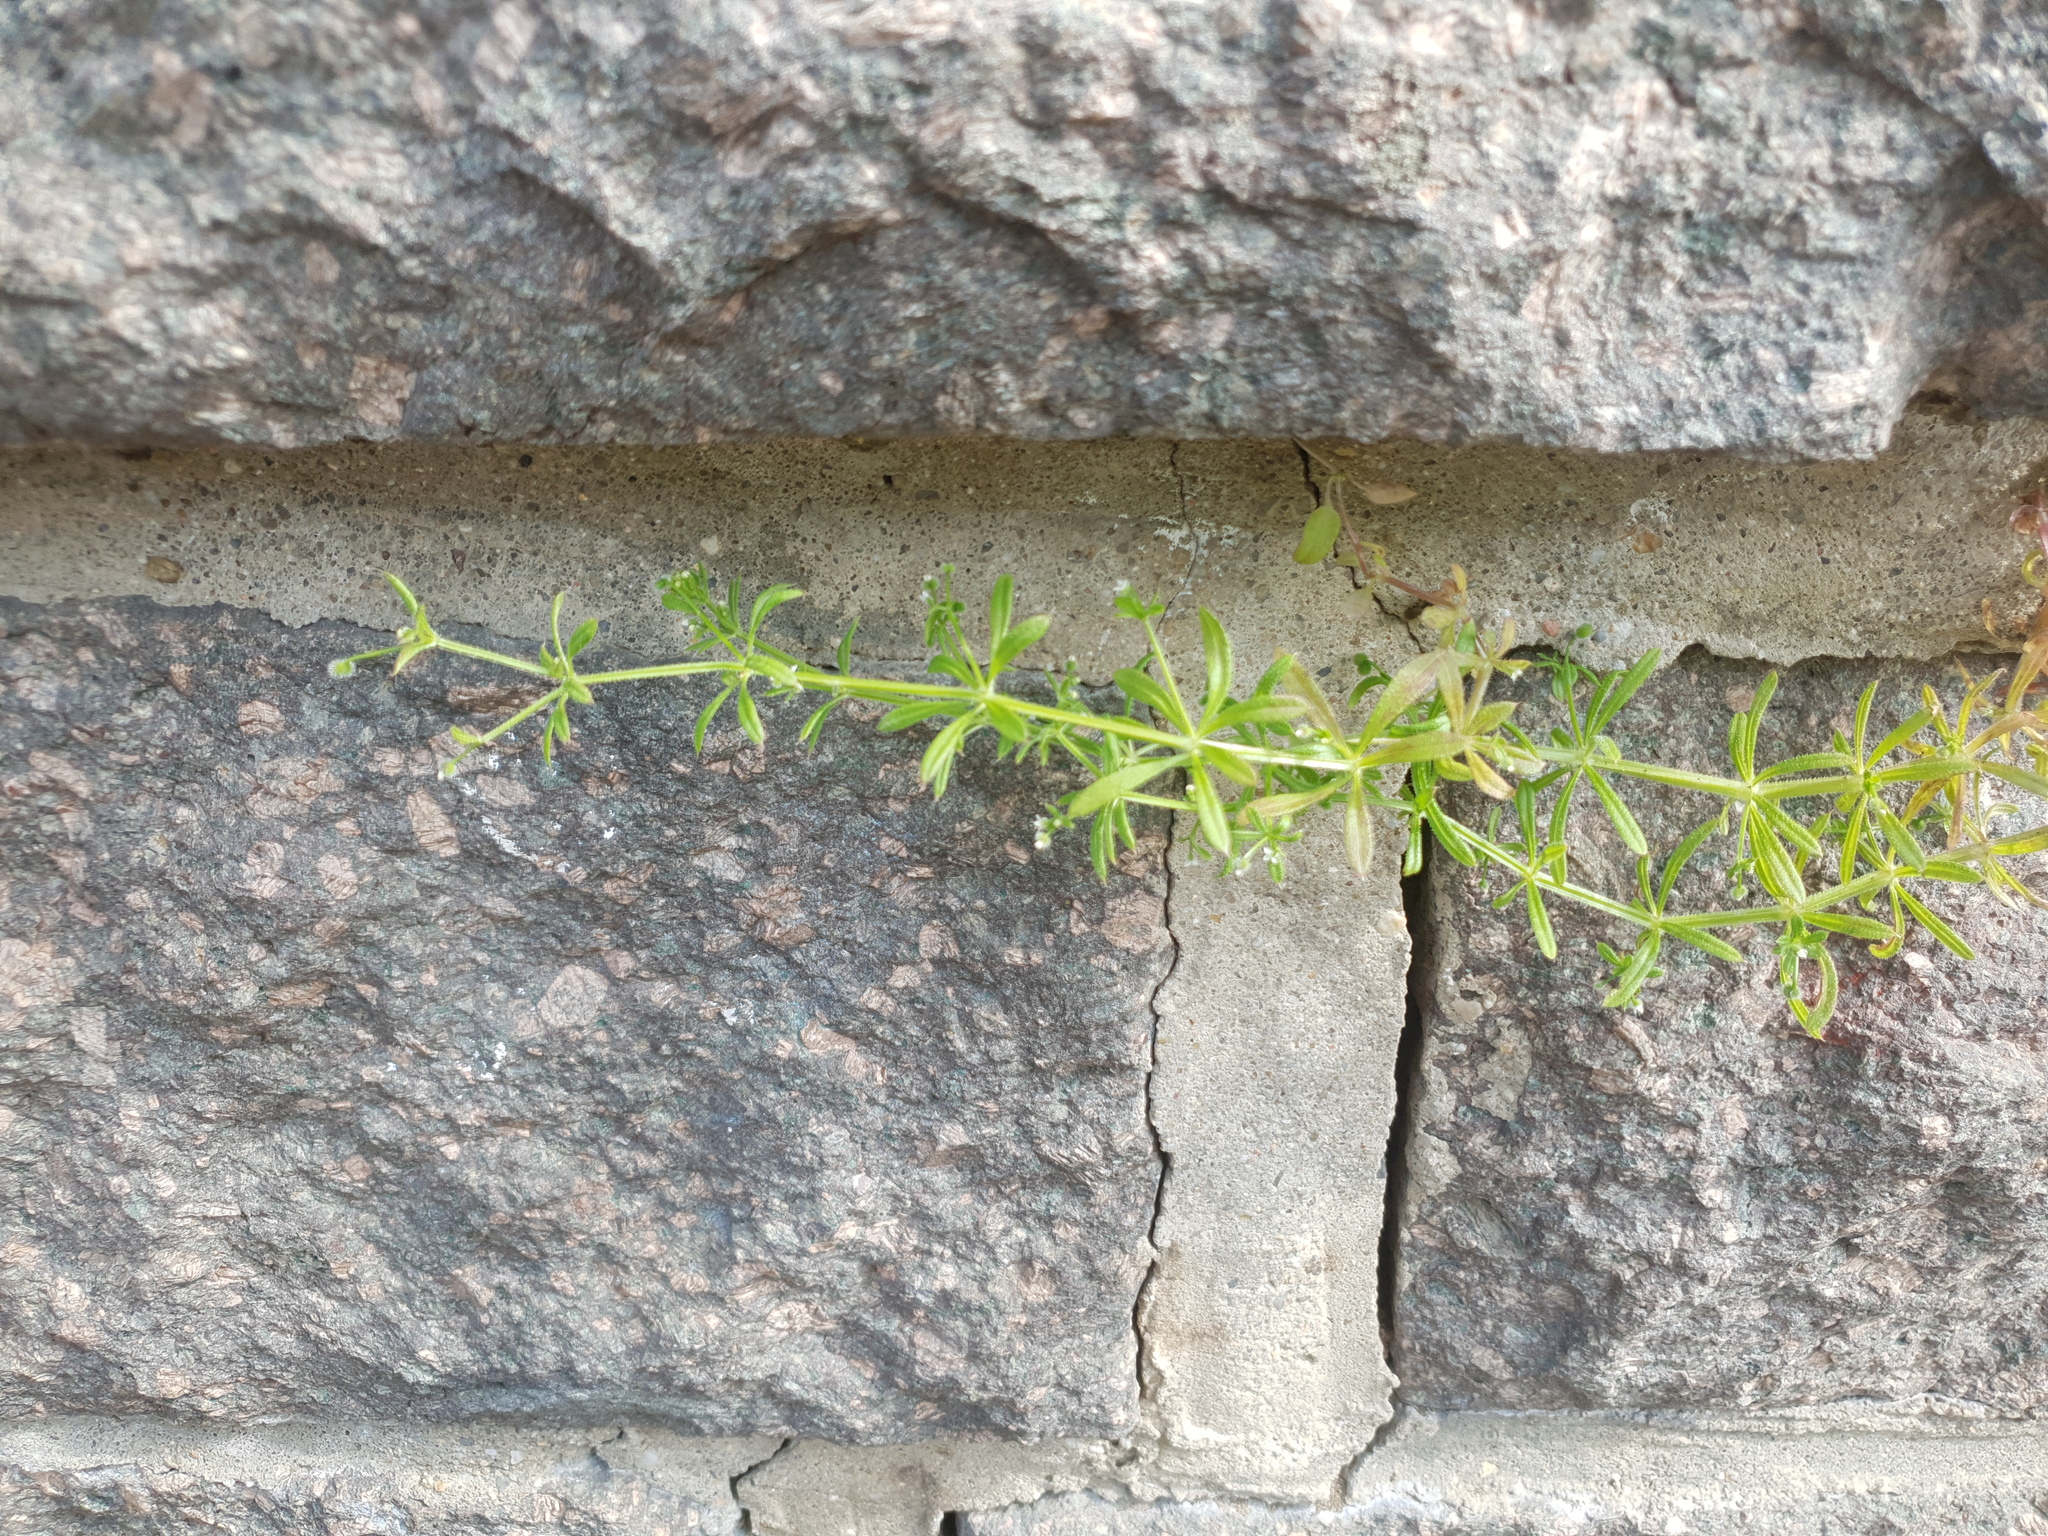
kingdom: Plantae
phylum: Tracheophyta
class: Magnoliopsida
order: Gentianales
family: Rubiaceae
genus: Galium
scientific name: Galium aparine
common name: Cleavers
